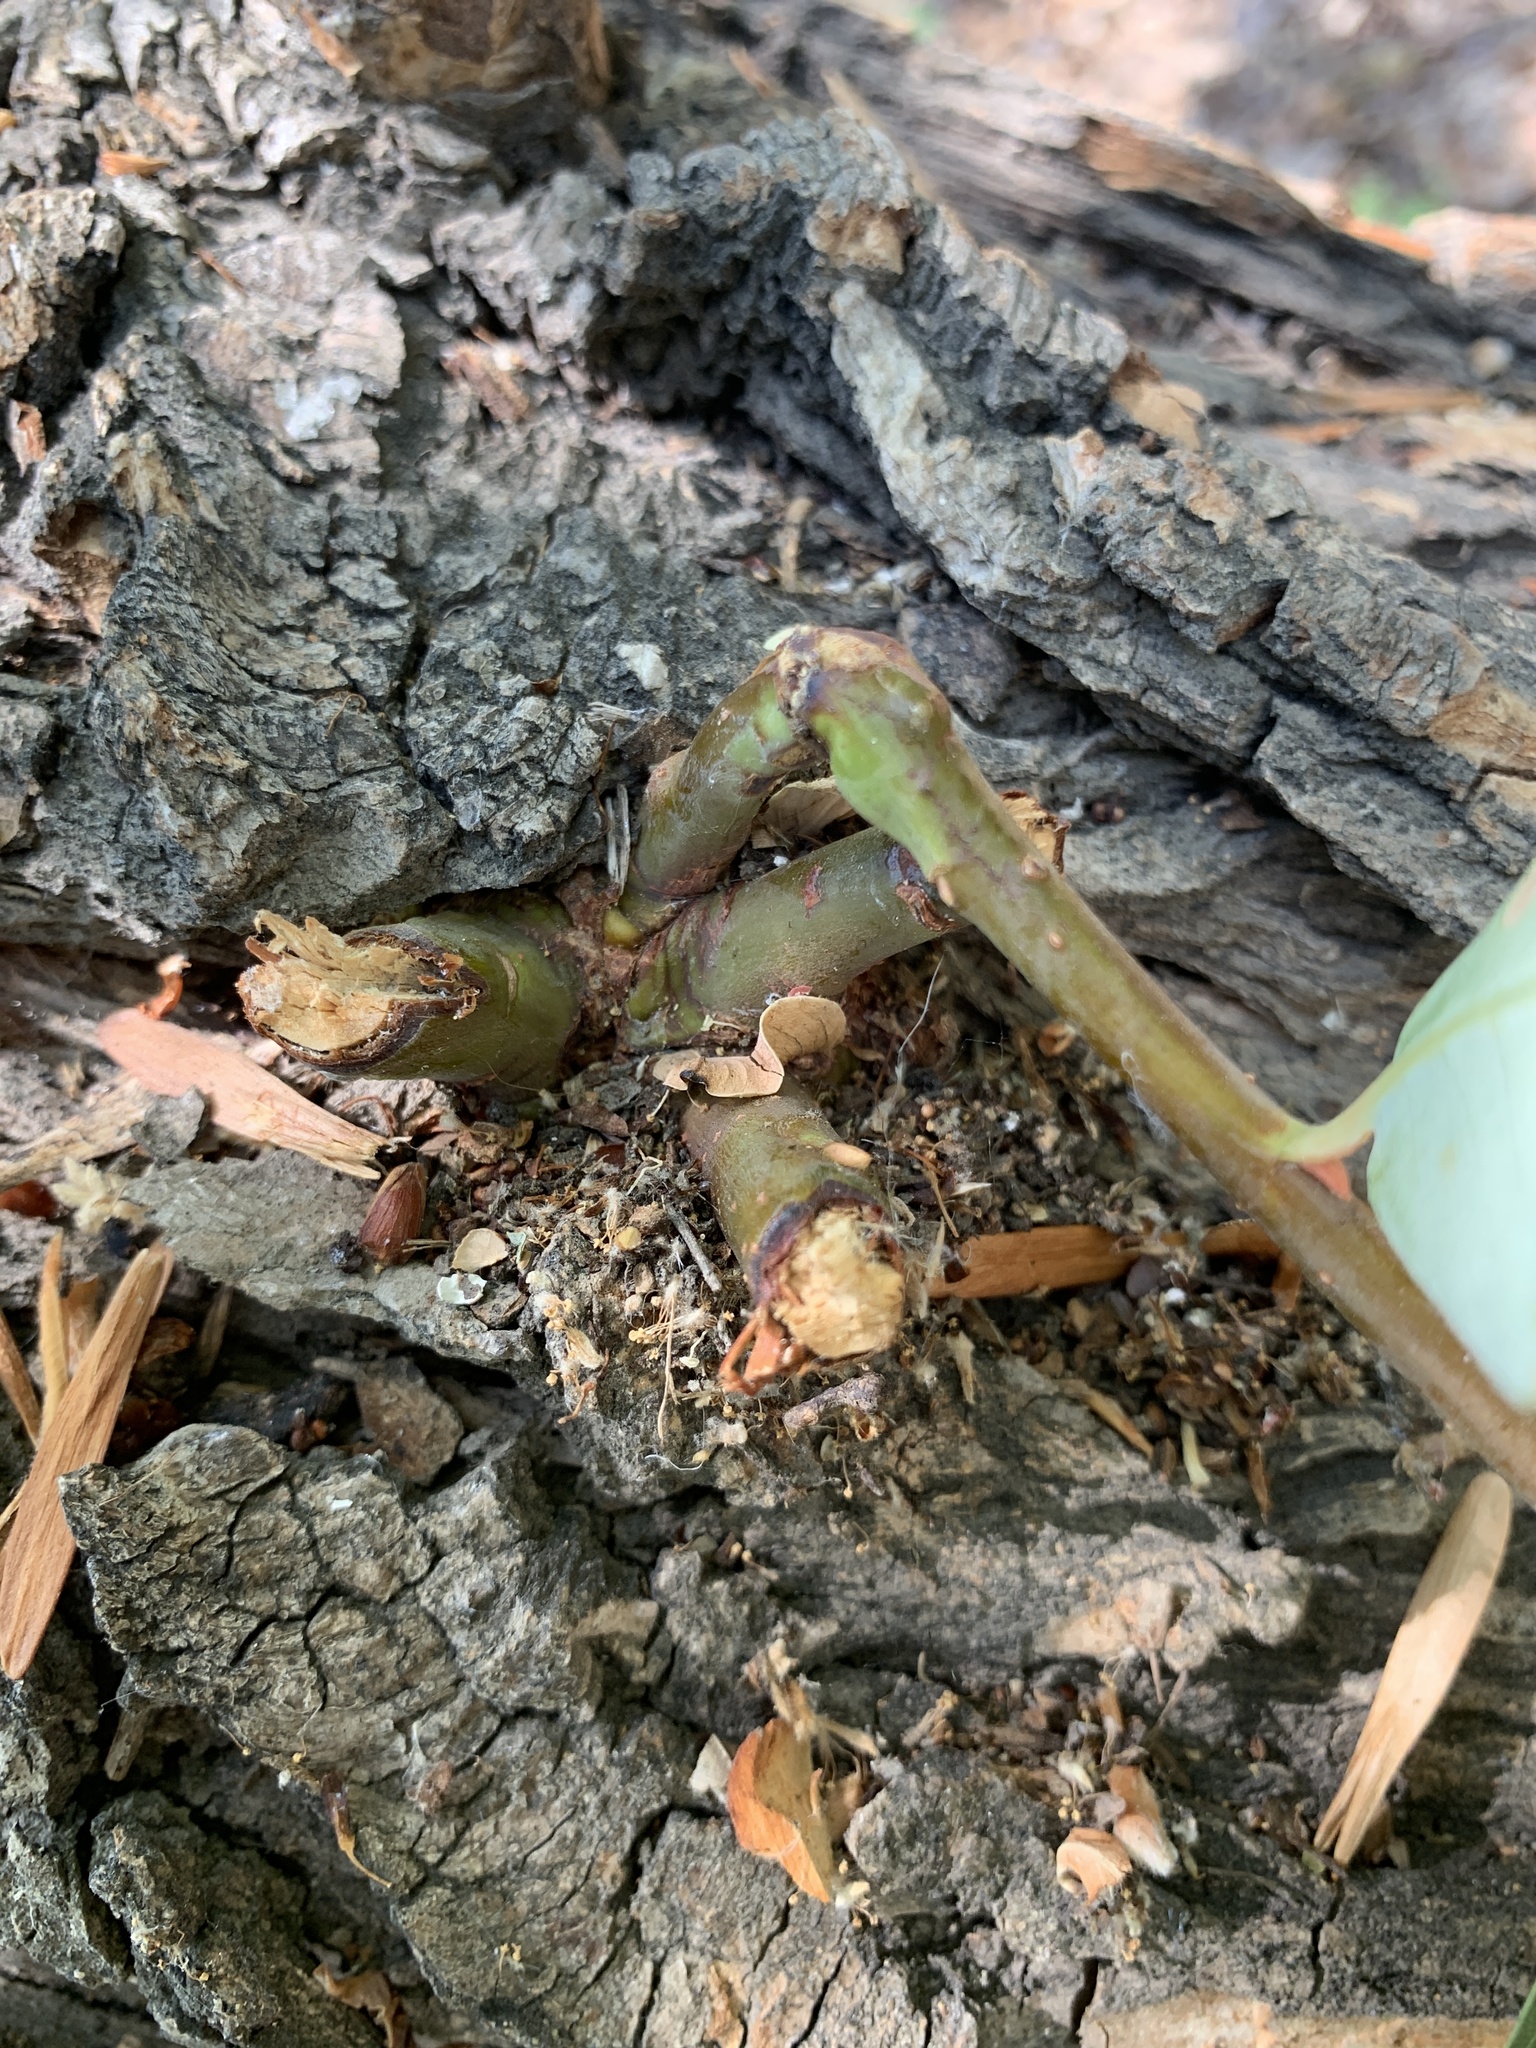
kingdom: Animalia
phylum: Chordata
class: Mammalia
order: Rodentia
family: Castoridae
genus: Castor
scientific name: Castor canadensis
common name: American beaver
